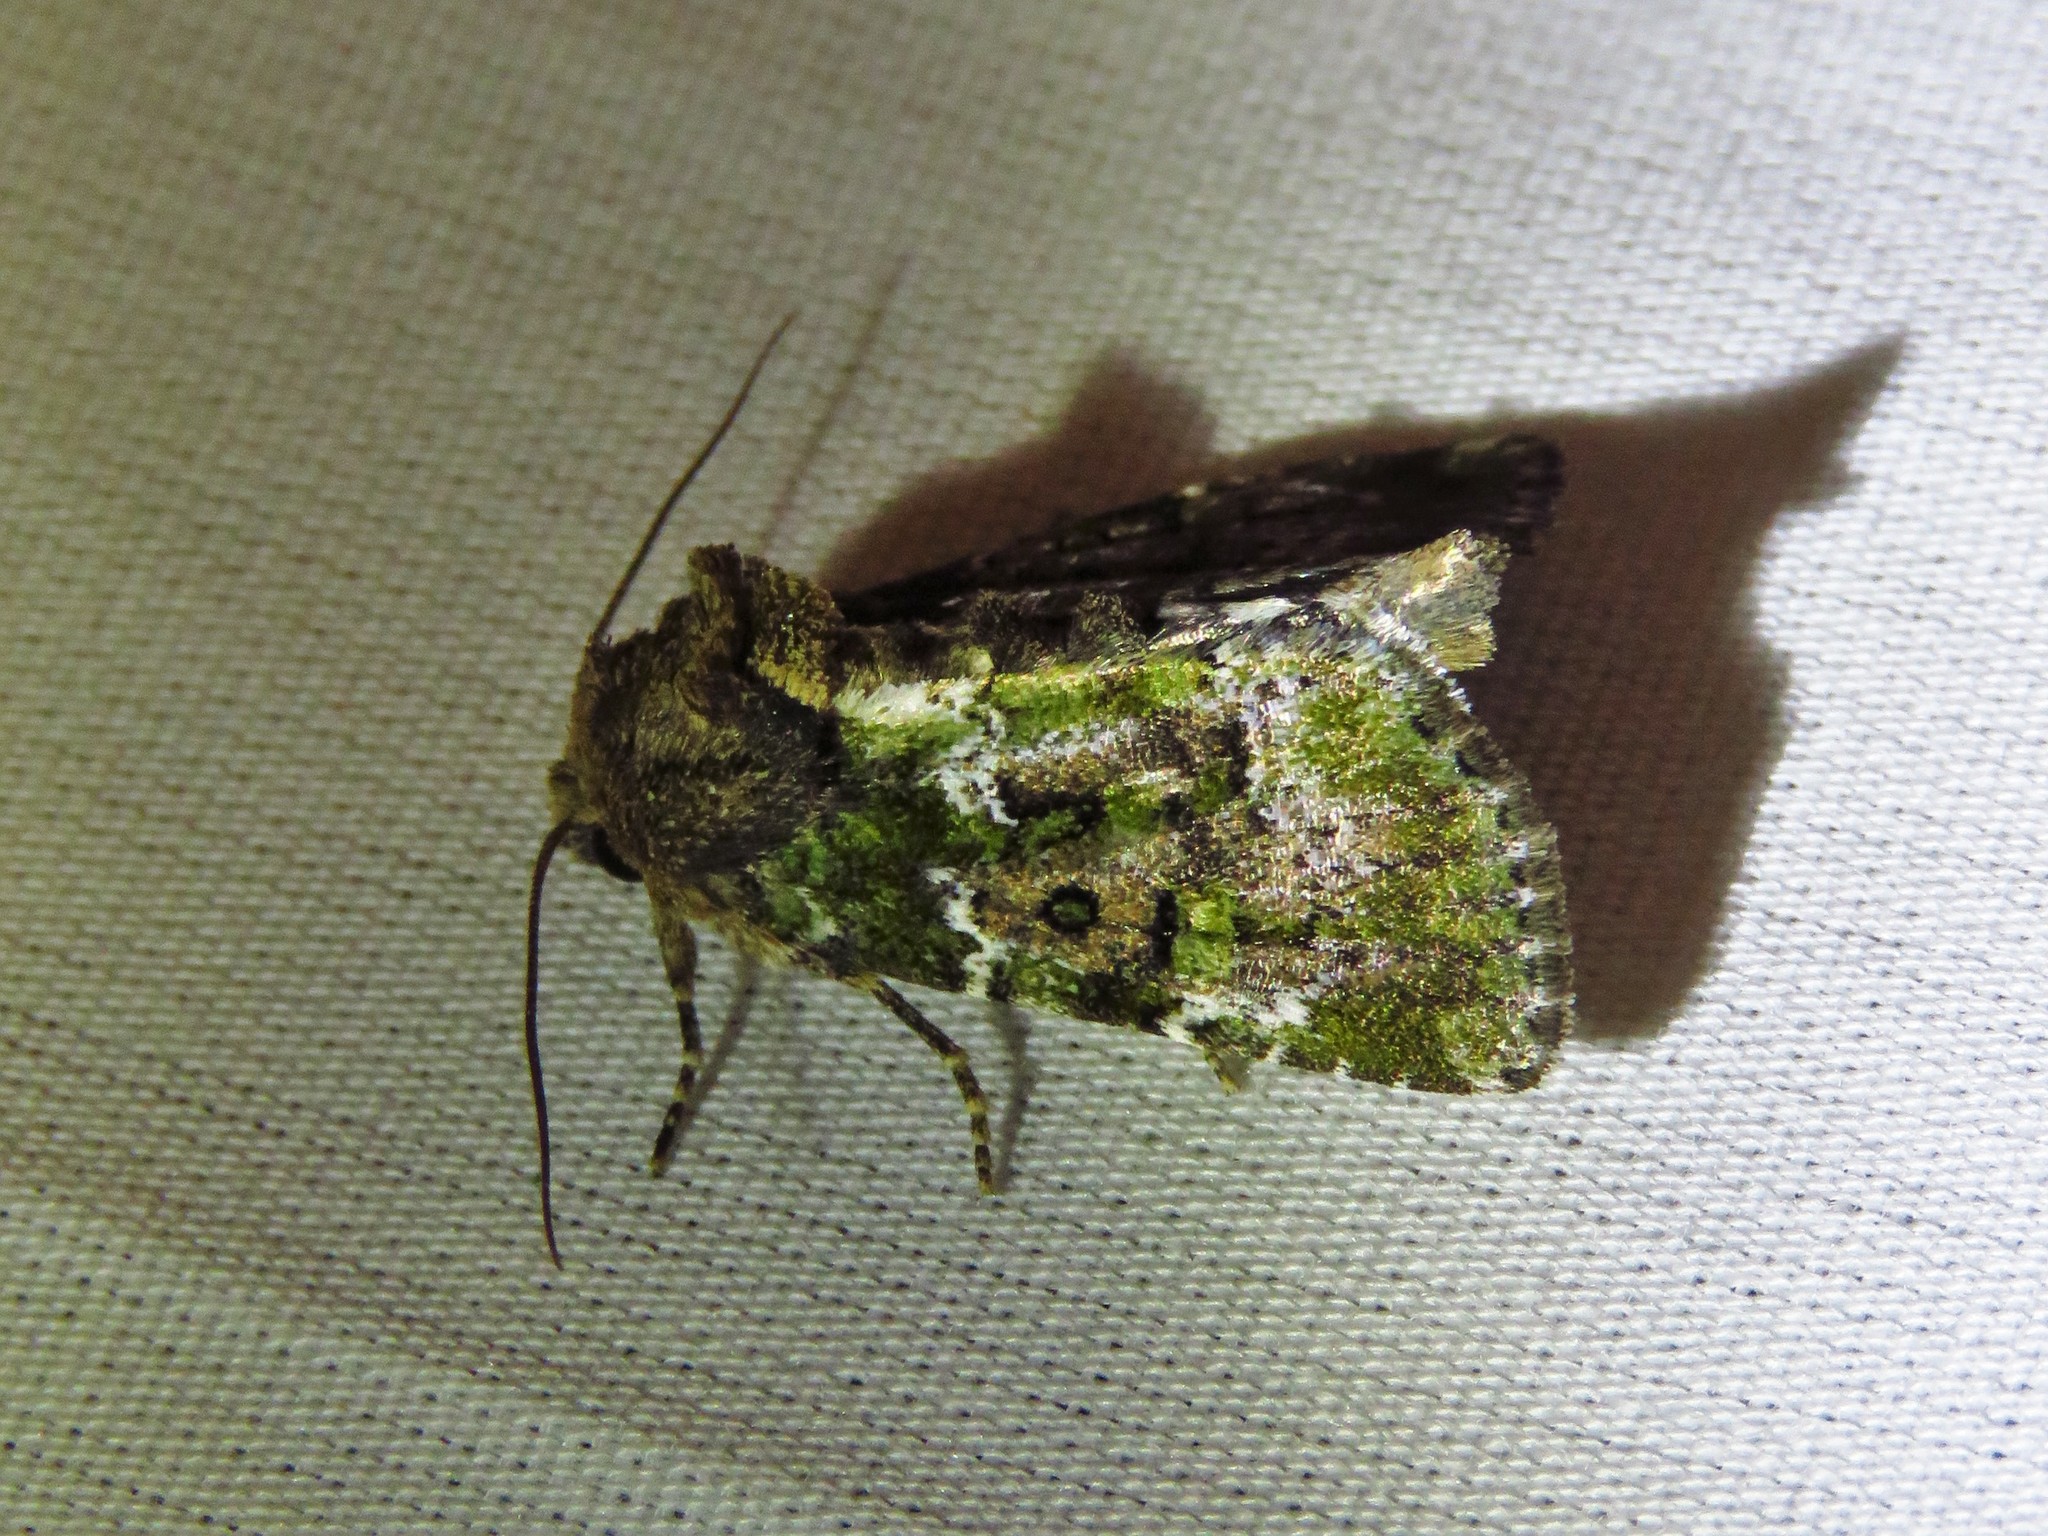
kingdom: Animalia
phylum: Arthropoda
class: Insecta
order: Lepidoptera
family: Noctuidae
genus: Oligia
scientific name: Oligia chlorostigma
